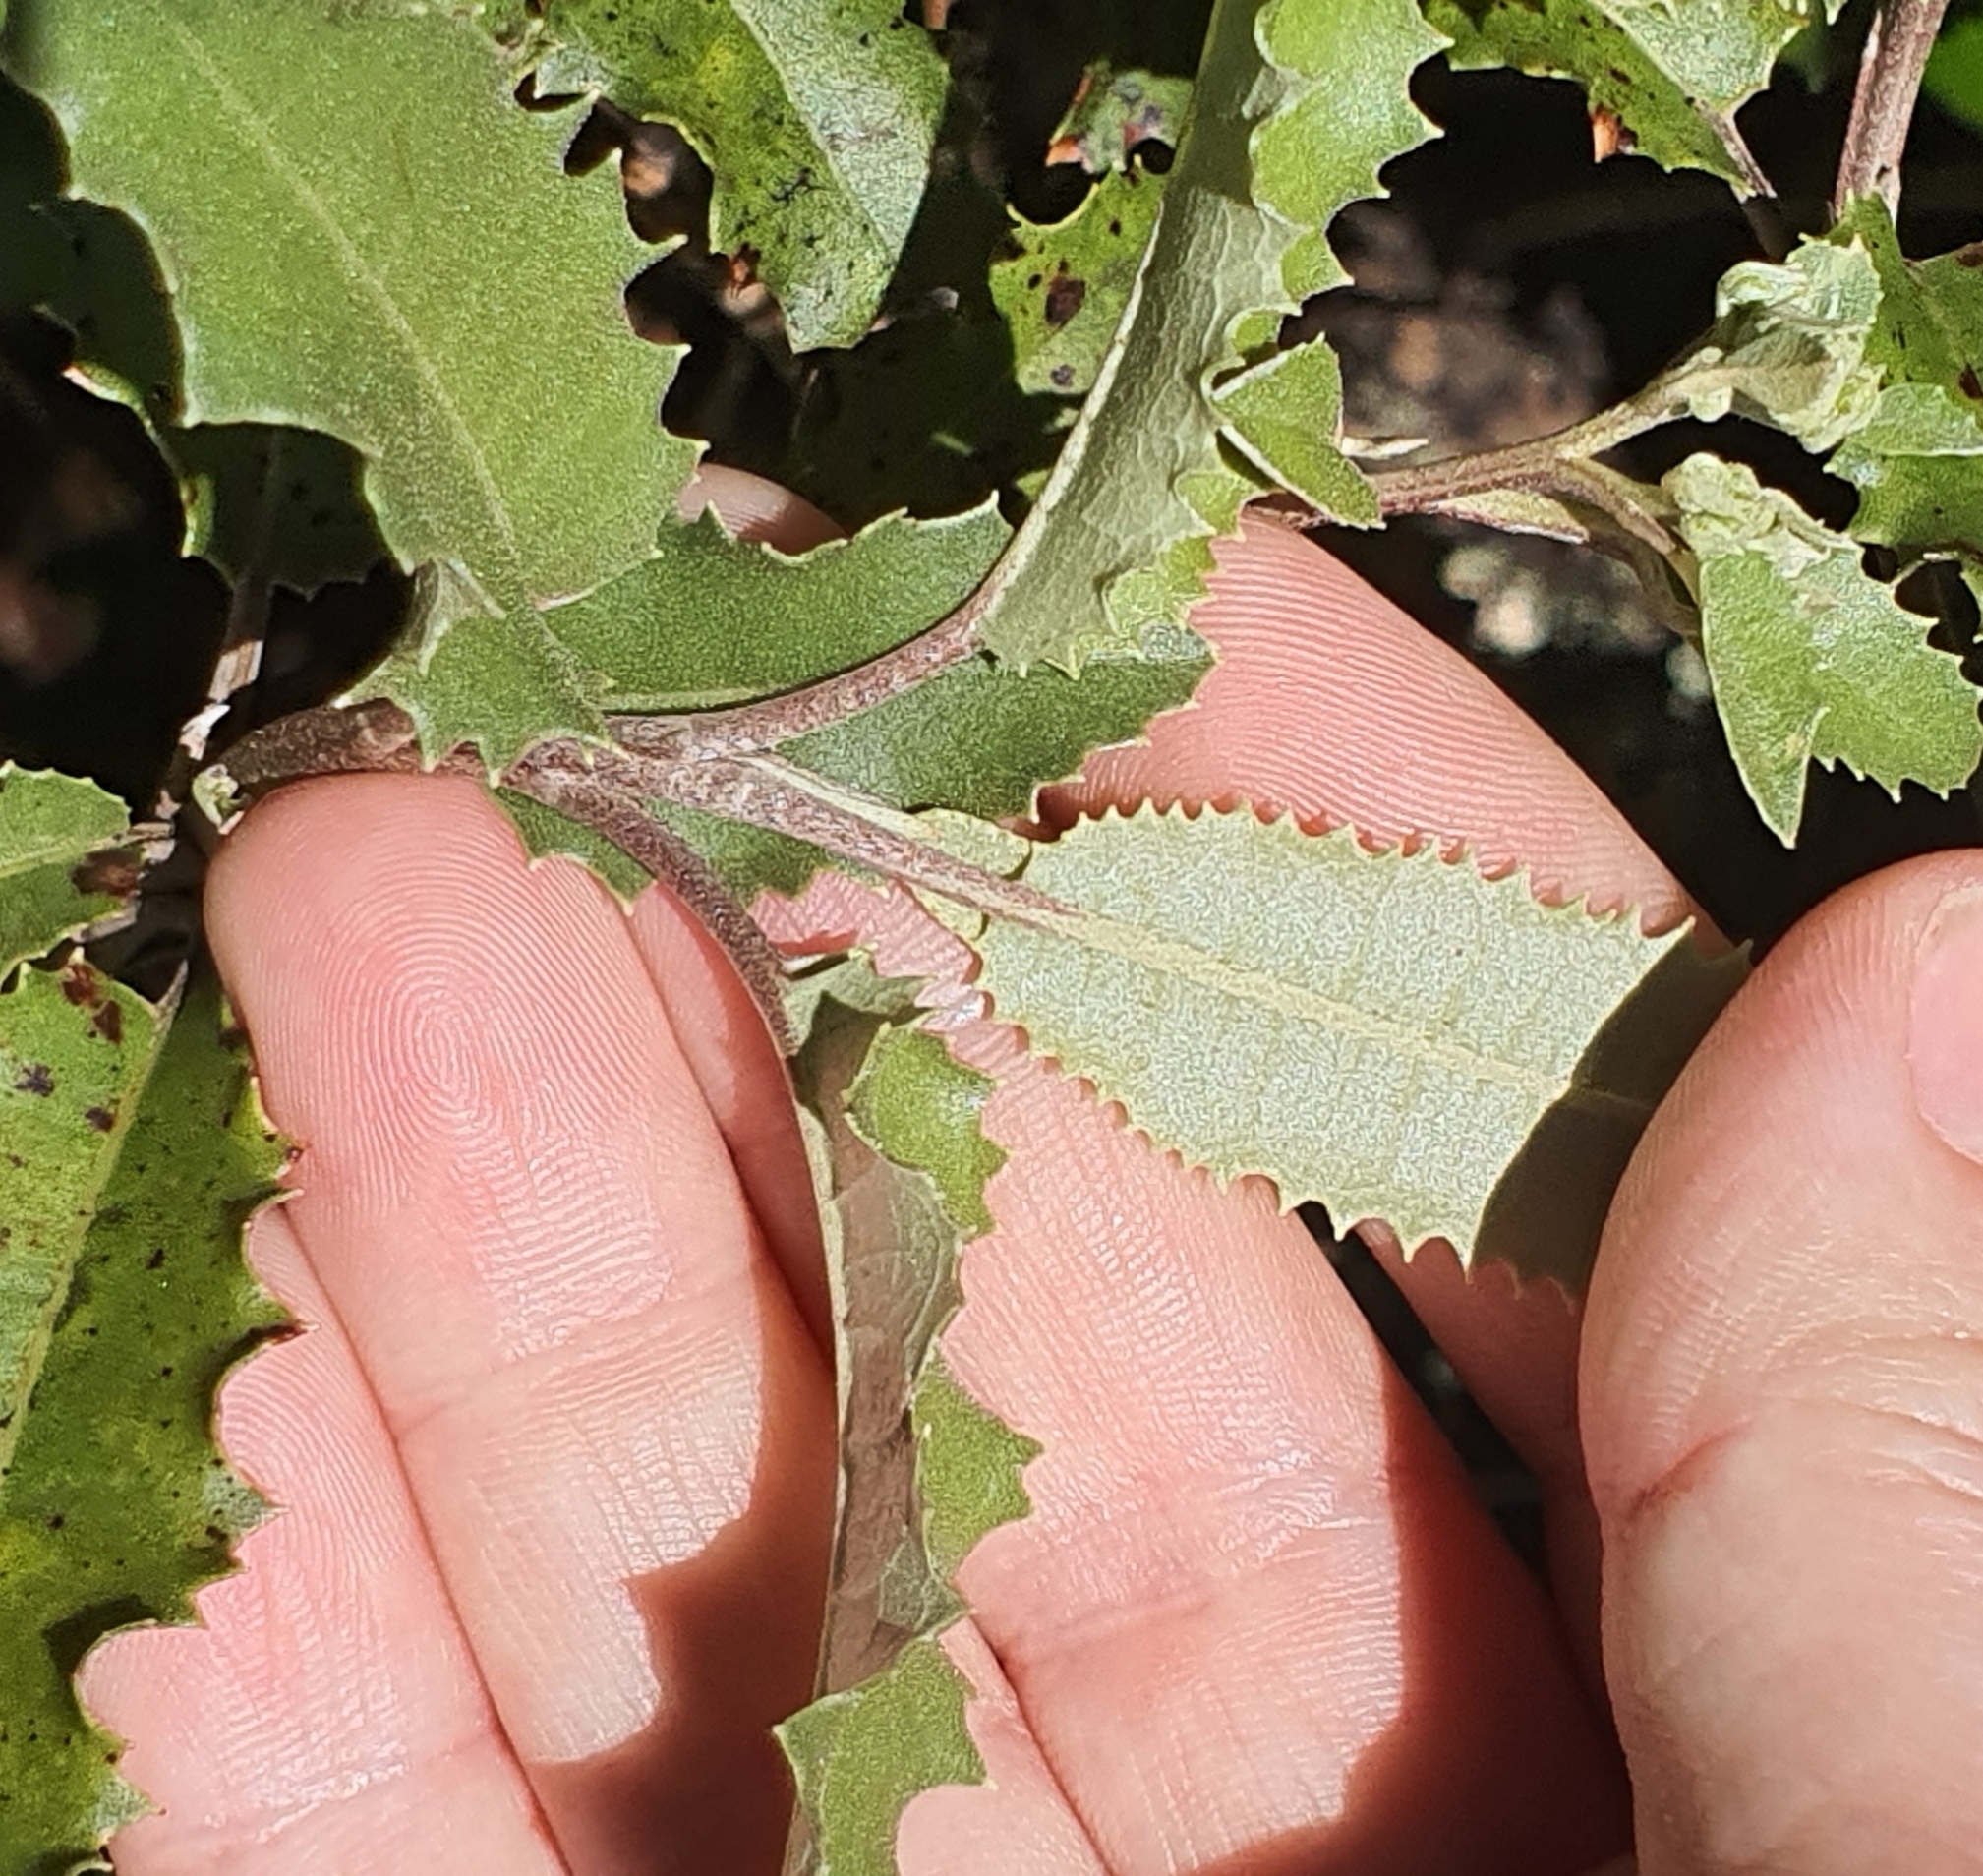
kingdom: Plantae
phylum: Tracheophyta
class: Magnoliopsida
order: Asterales
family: Asteraceae
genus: Olearia
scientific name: Olearia ilicifolia
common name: Maori-holly
